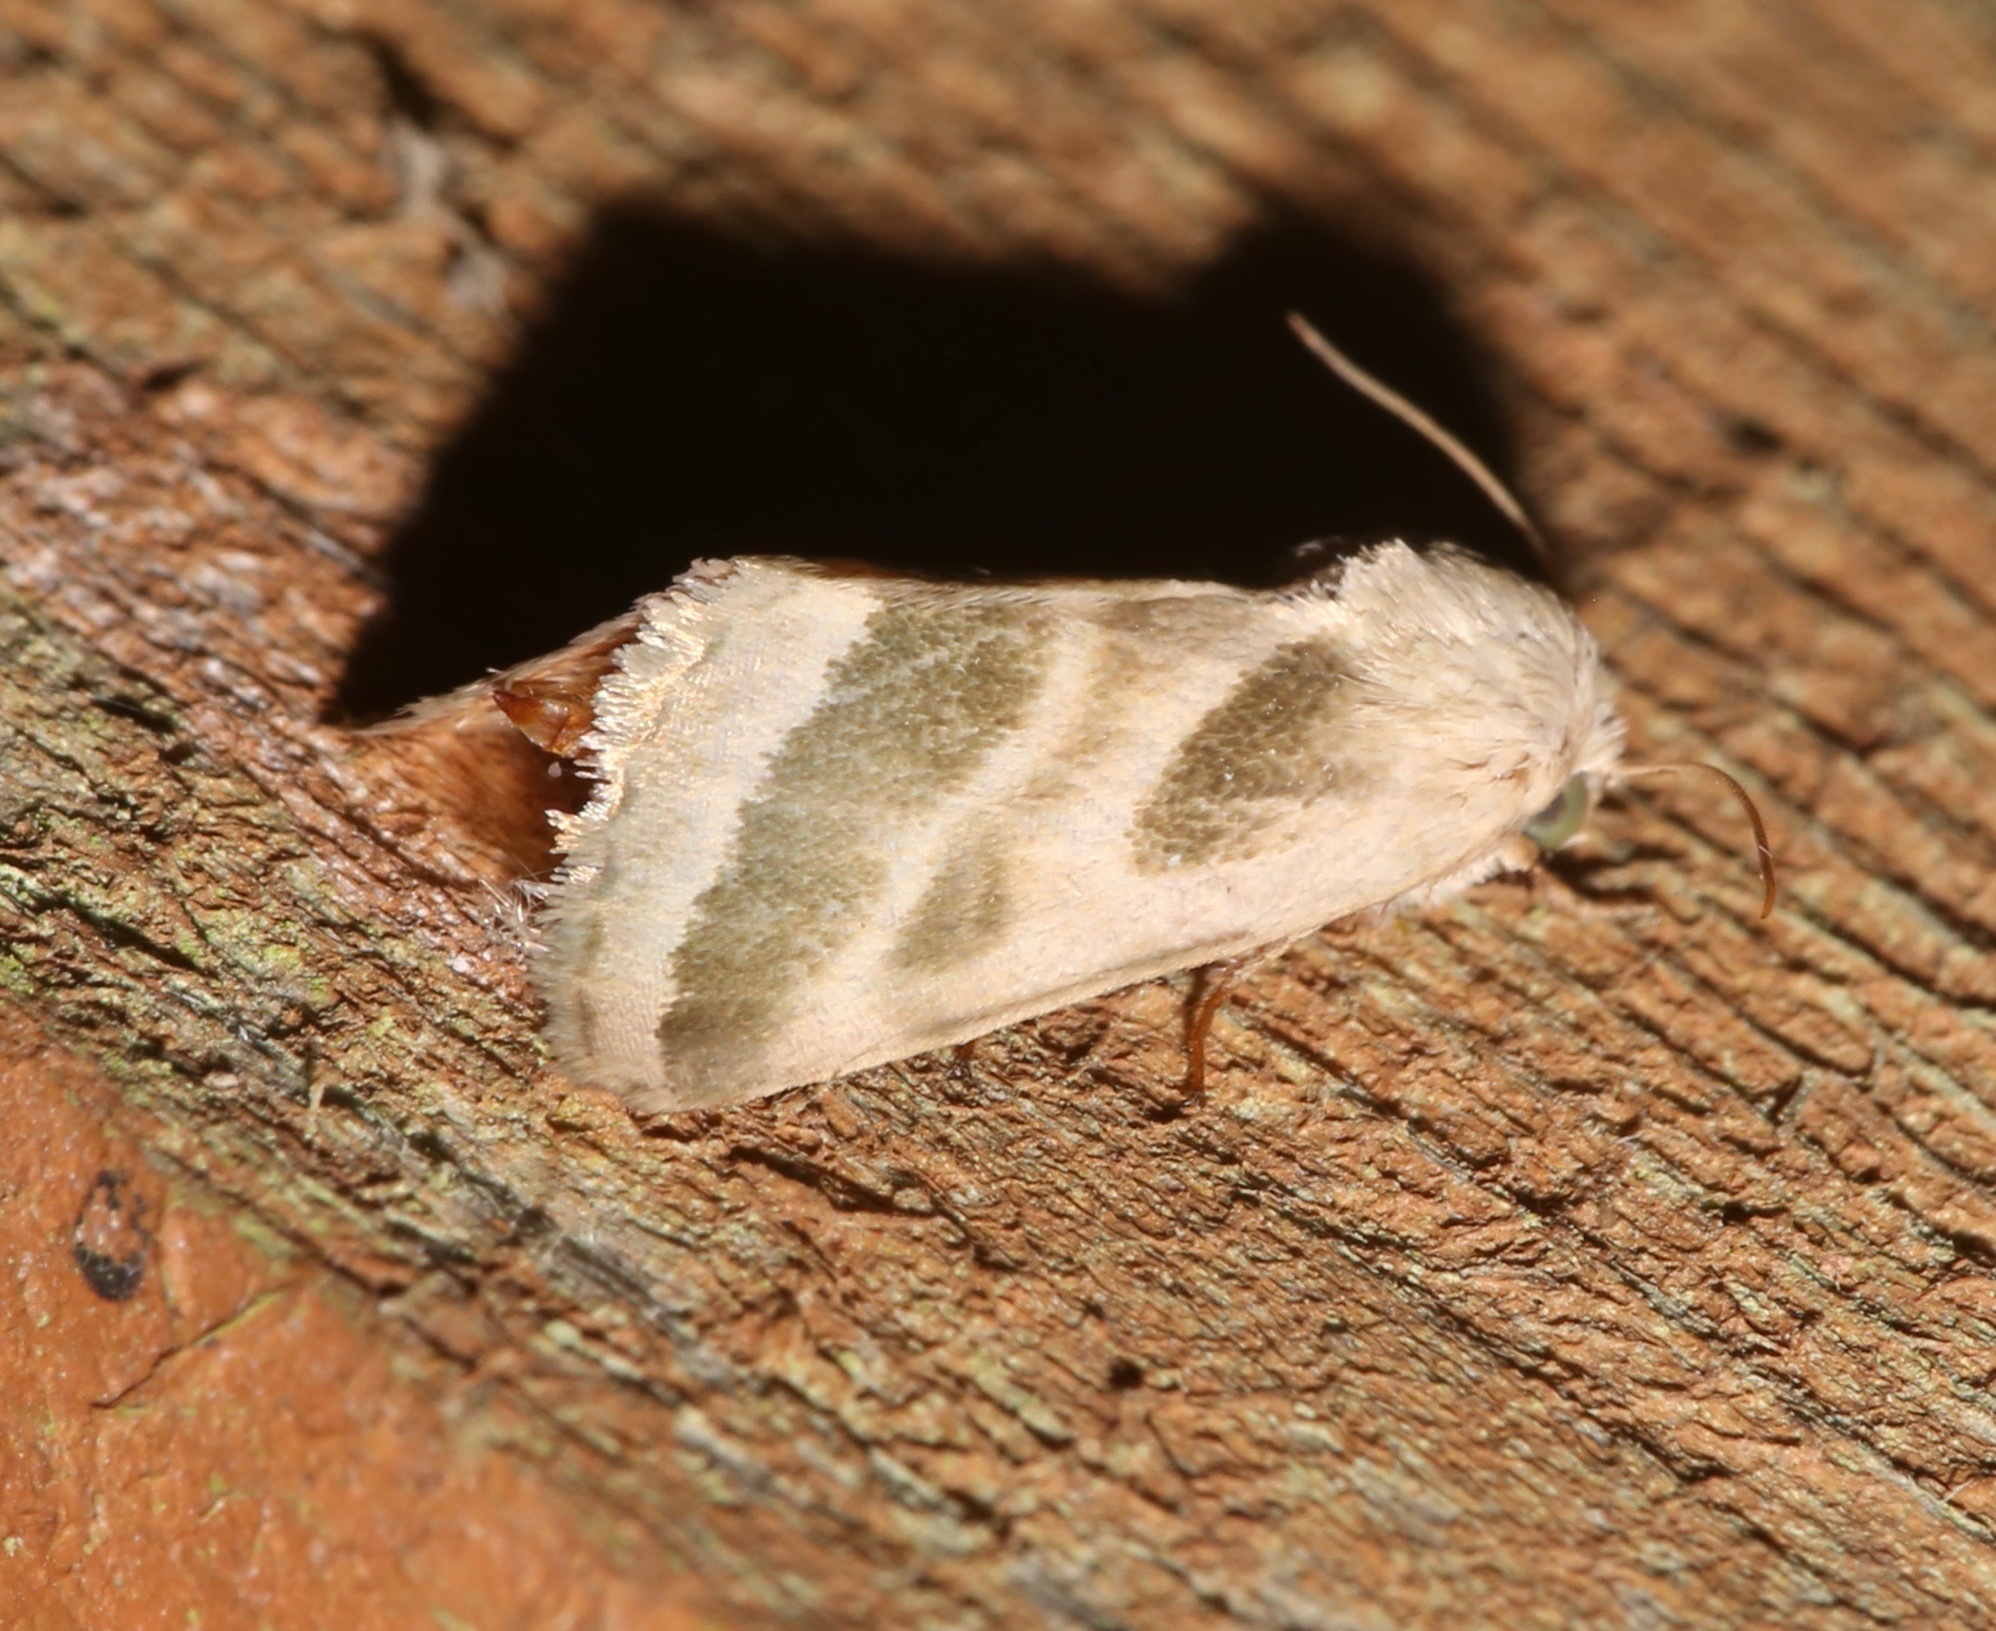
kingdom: Animalia
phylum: Arthropoda
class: Insecta
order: Lepidoptera
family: Noctuidae
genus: Schinia
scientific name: Schinia trifascia
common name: Three-lined flower moth
